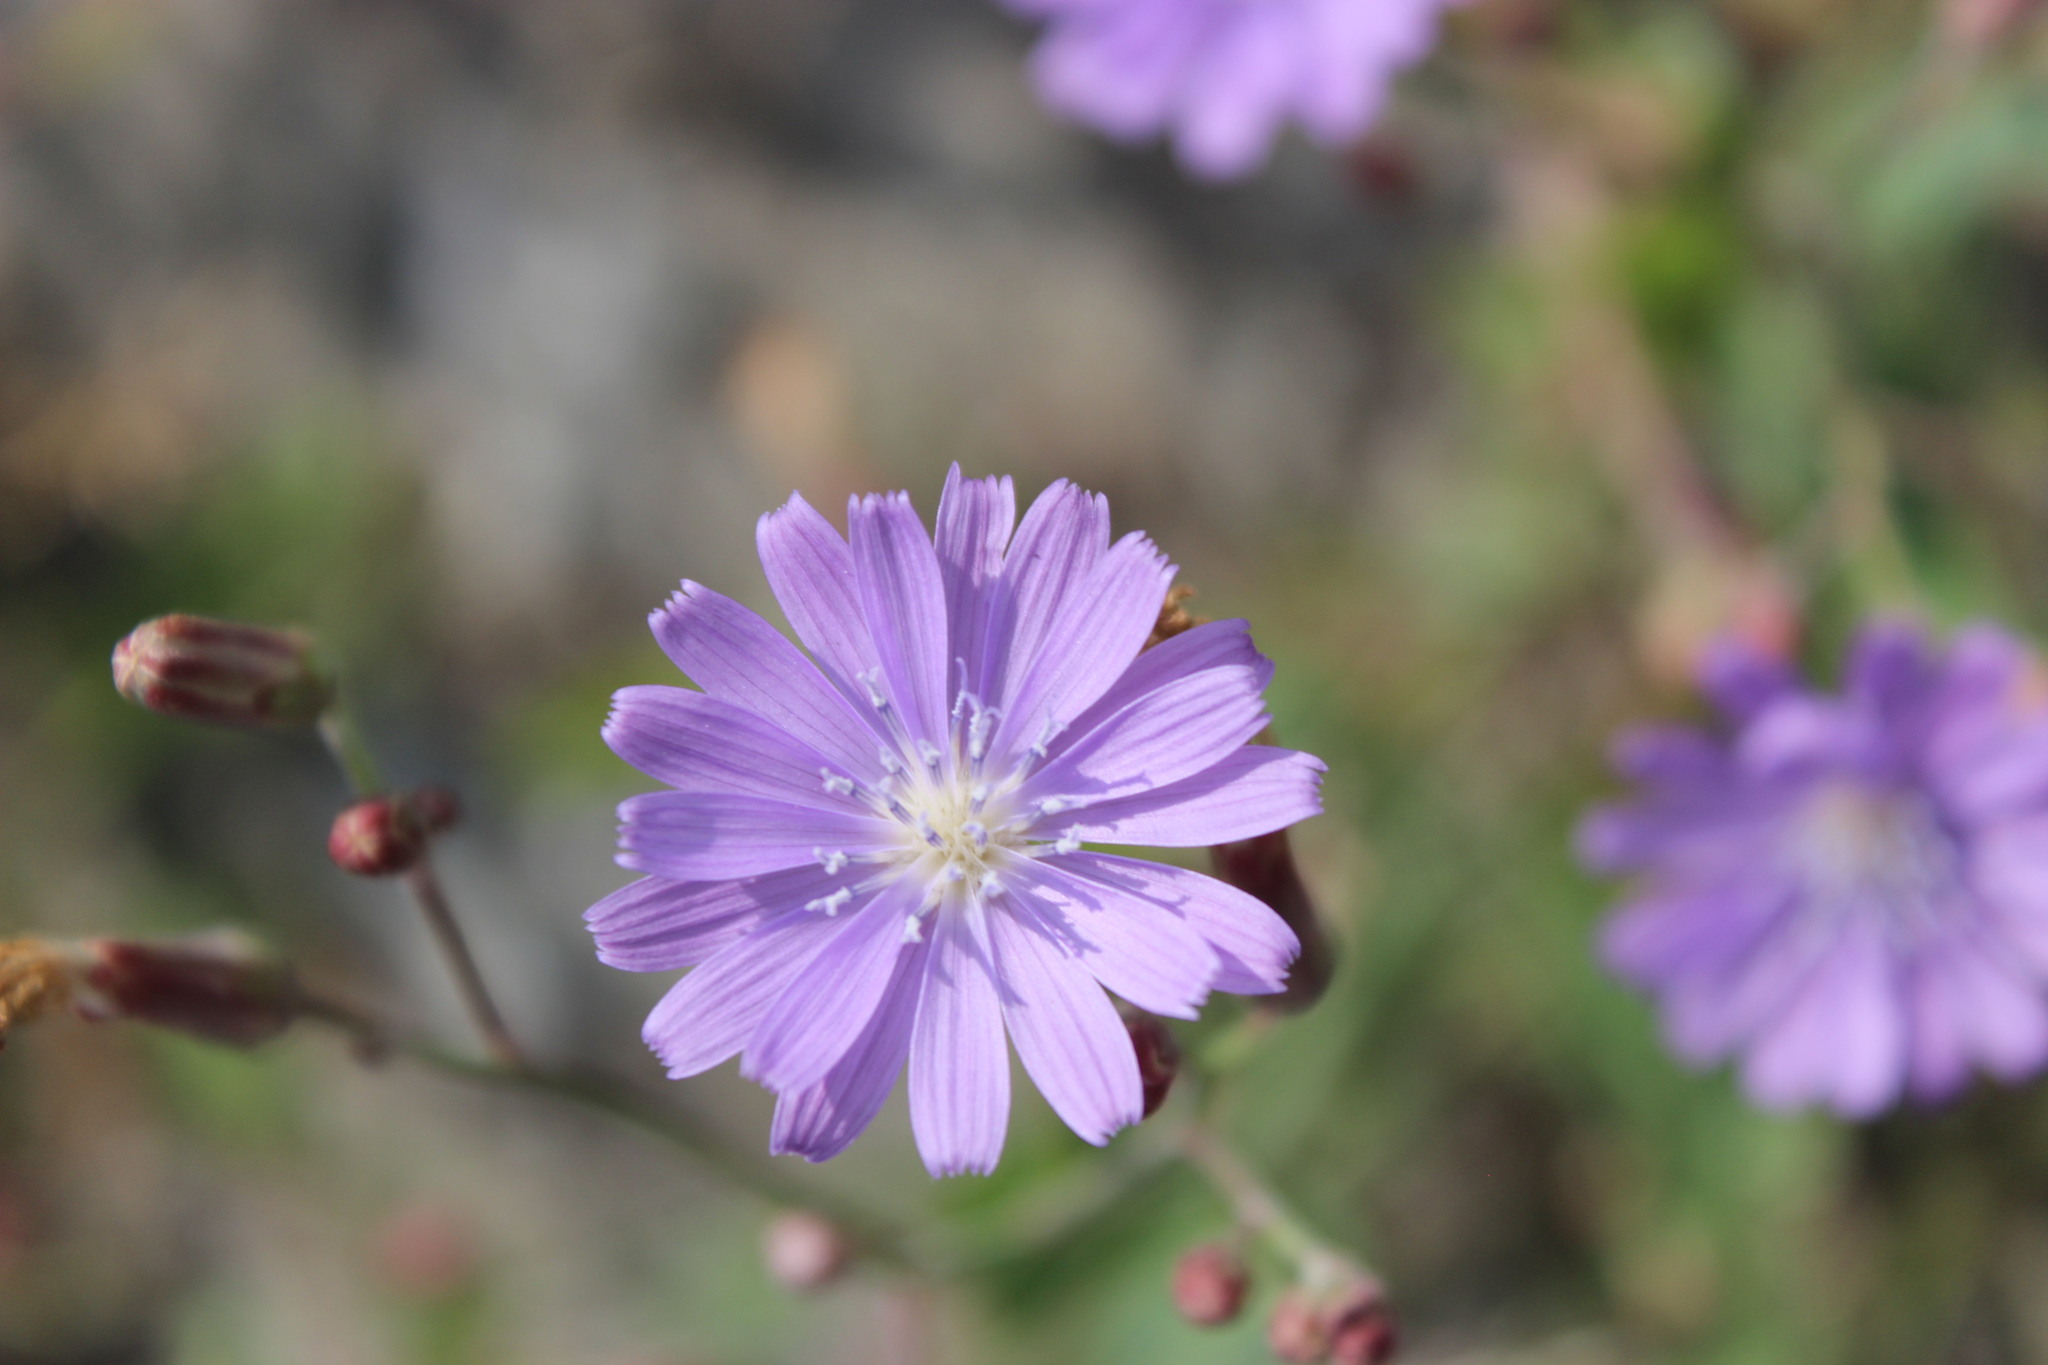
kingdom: Plantae
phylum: Tracheophyta
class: Magnoliopsida
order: Asterales
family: Asteraceae
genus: Lactuca
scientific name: Lactuca tatarica
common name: Blue lettuce
